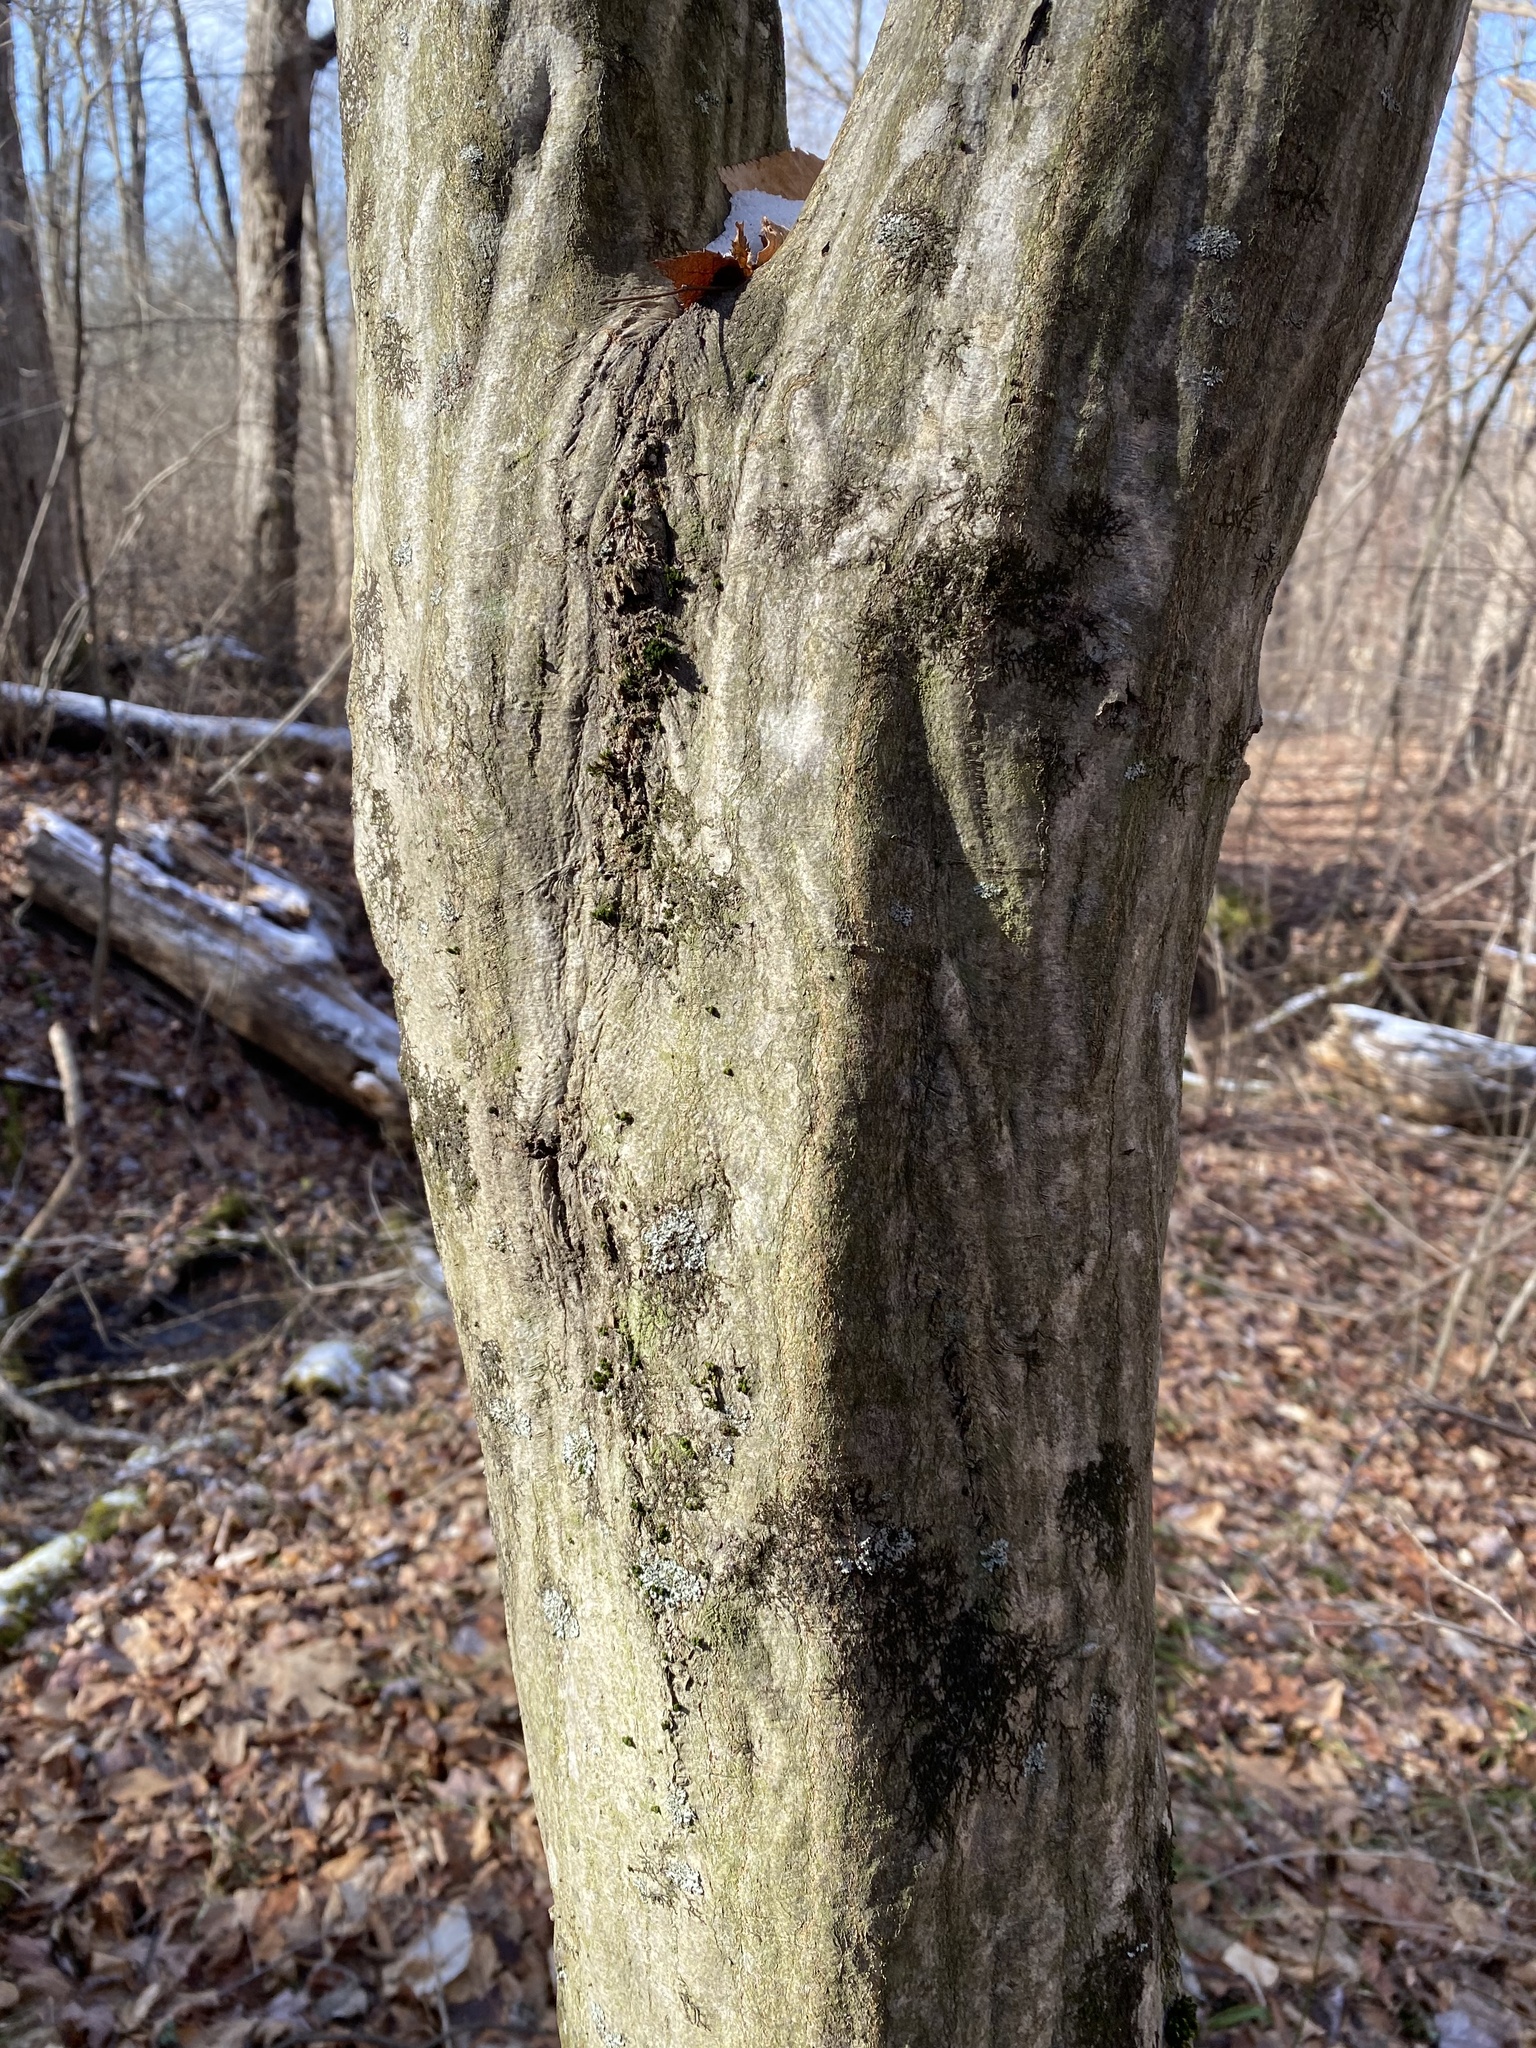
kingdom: Plantae
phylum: Tracheophyta
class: Magnoliopsida
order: Fagales
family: Betulaceae
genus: Carpinus
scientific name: Carpinus caroliniana
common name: American hornbeam
